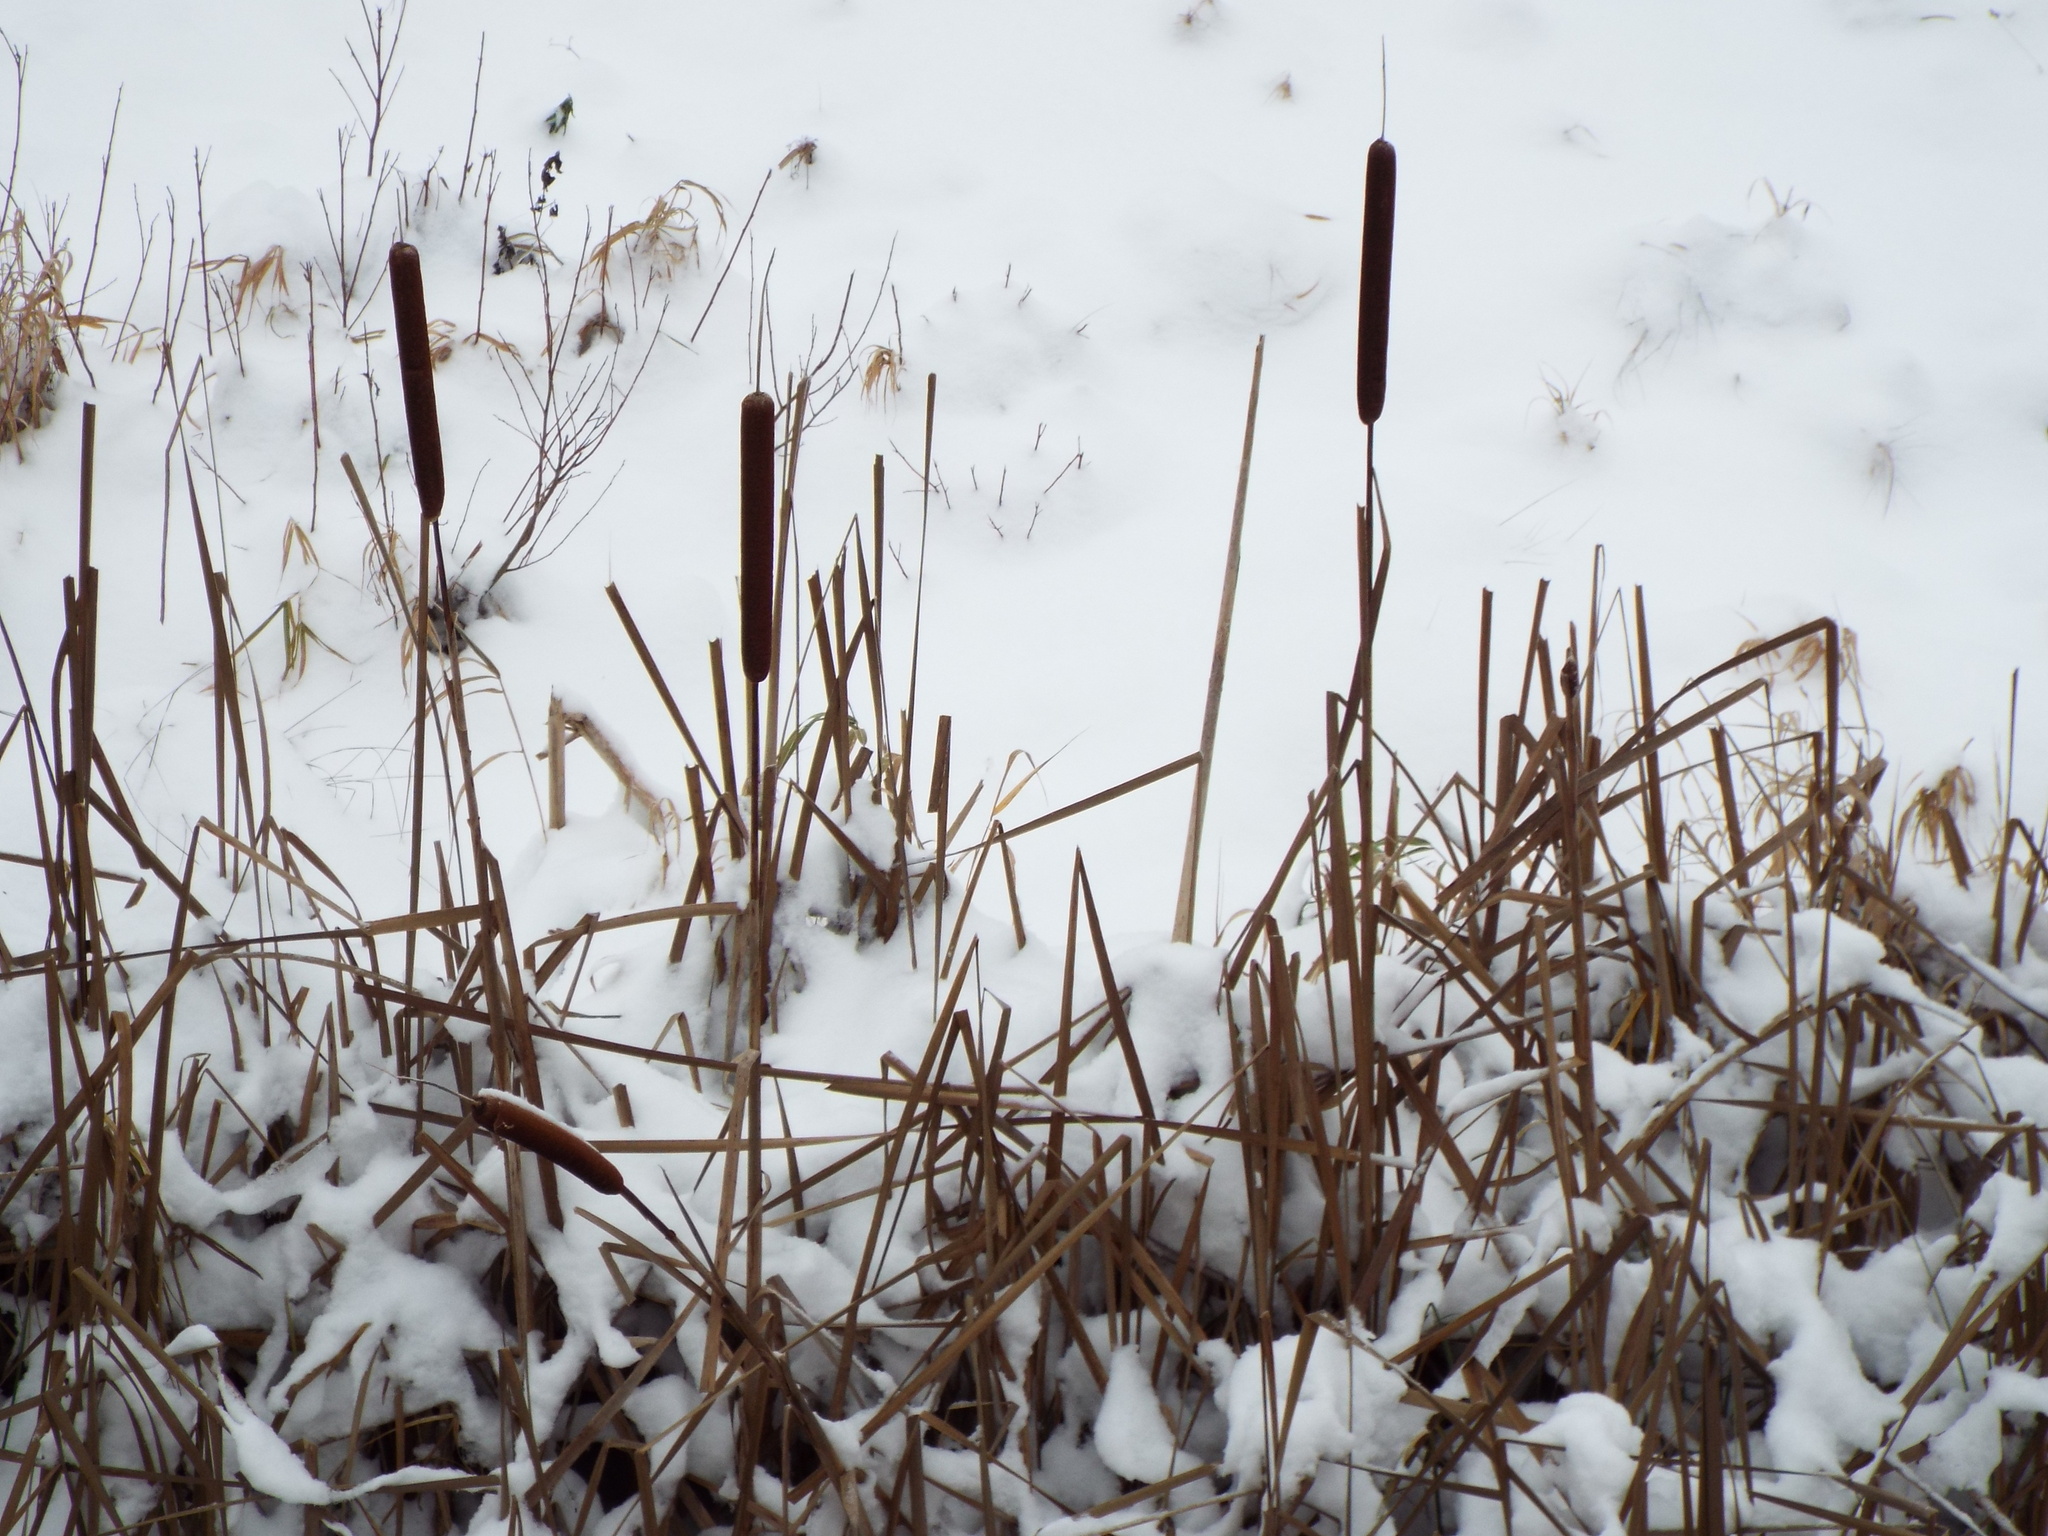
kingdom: Plantae
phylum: Tracheophyta
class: Liliopsida
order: Poales
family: Typhaceae
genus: Typha
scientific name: Typha latifolia
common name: Broadleaf cattail
